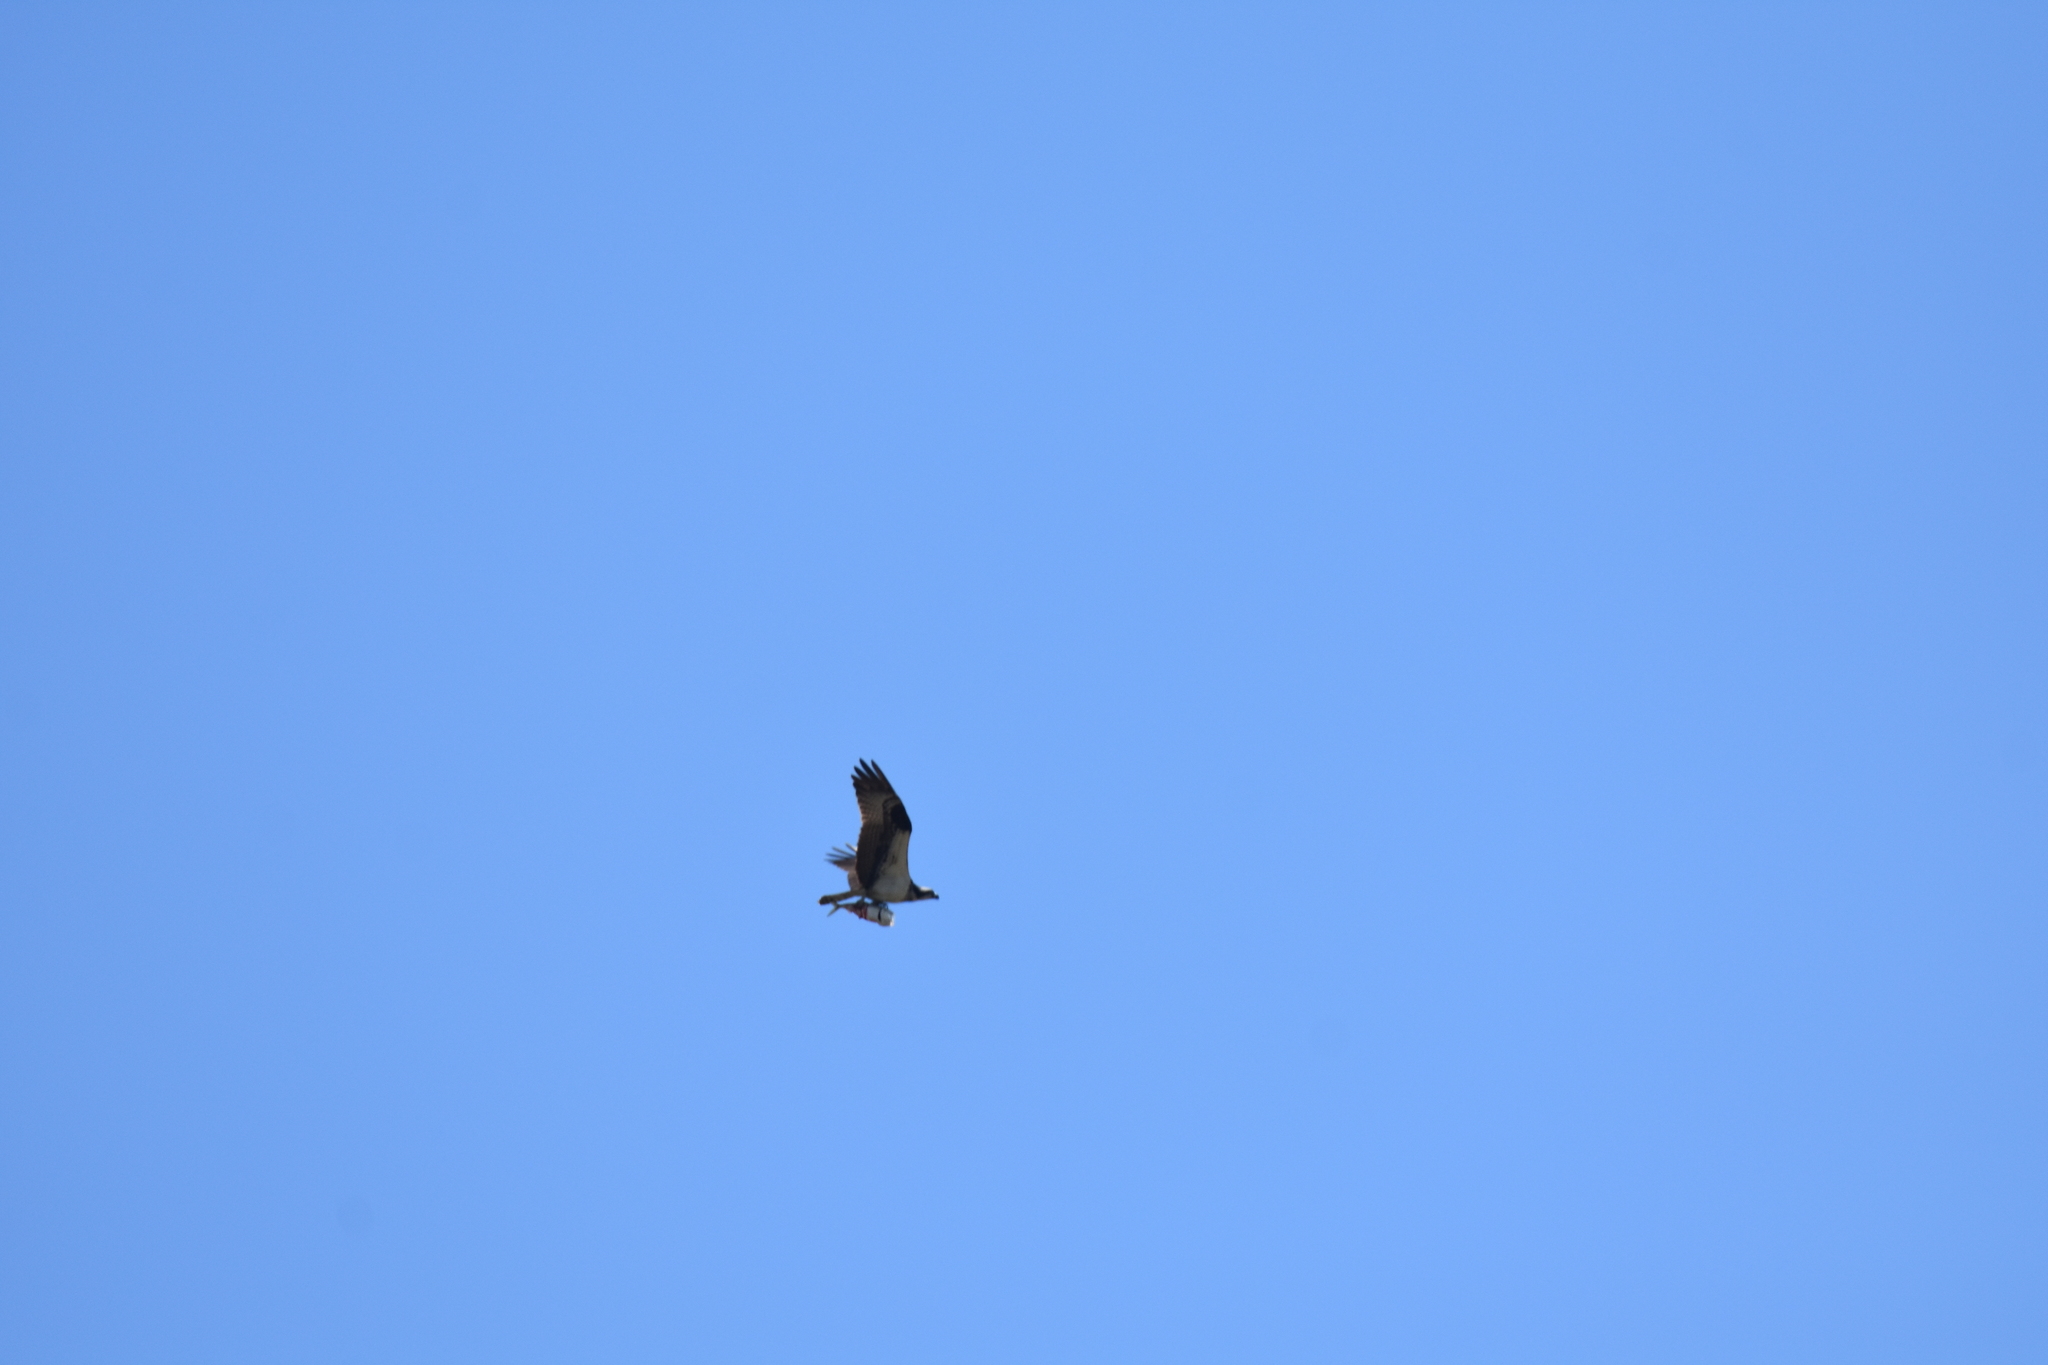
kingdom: Animalia
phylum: Chordata
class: Aves
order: Accipitriformes
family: Pandionidae
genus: Pandion
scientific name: Pandion haliaetus
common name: Osprey
